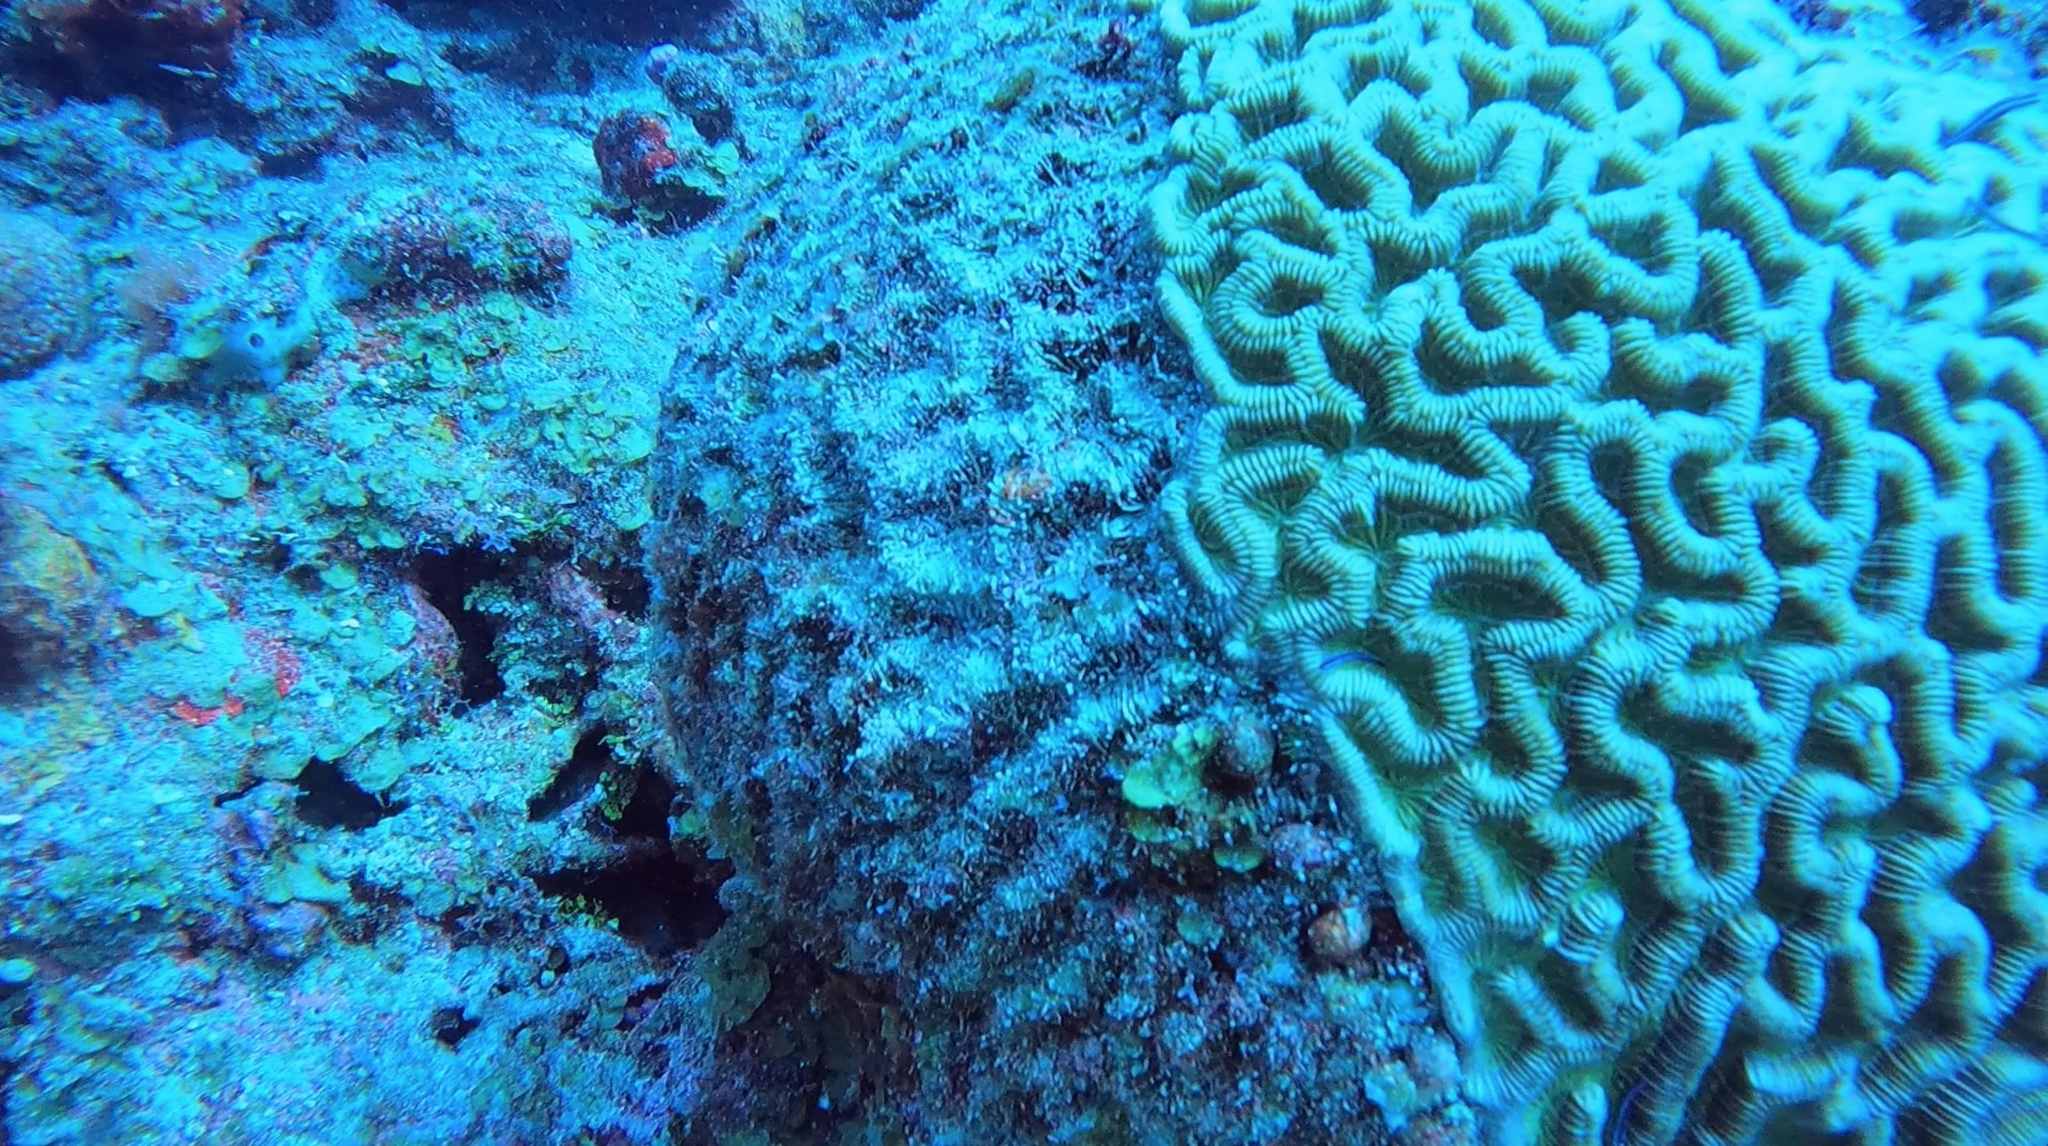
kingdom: Animalia
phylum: Cnidaria
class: Anthozoa
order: Scleractinia
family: Faviidae
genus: Colpophyllia
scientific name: Colpophyllia natans
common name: Boulder brain coral
